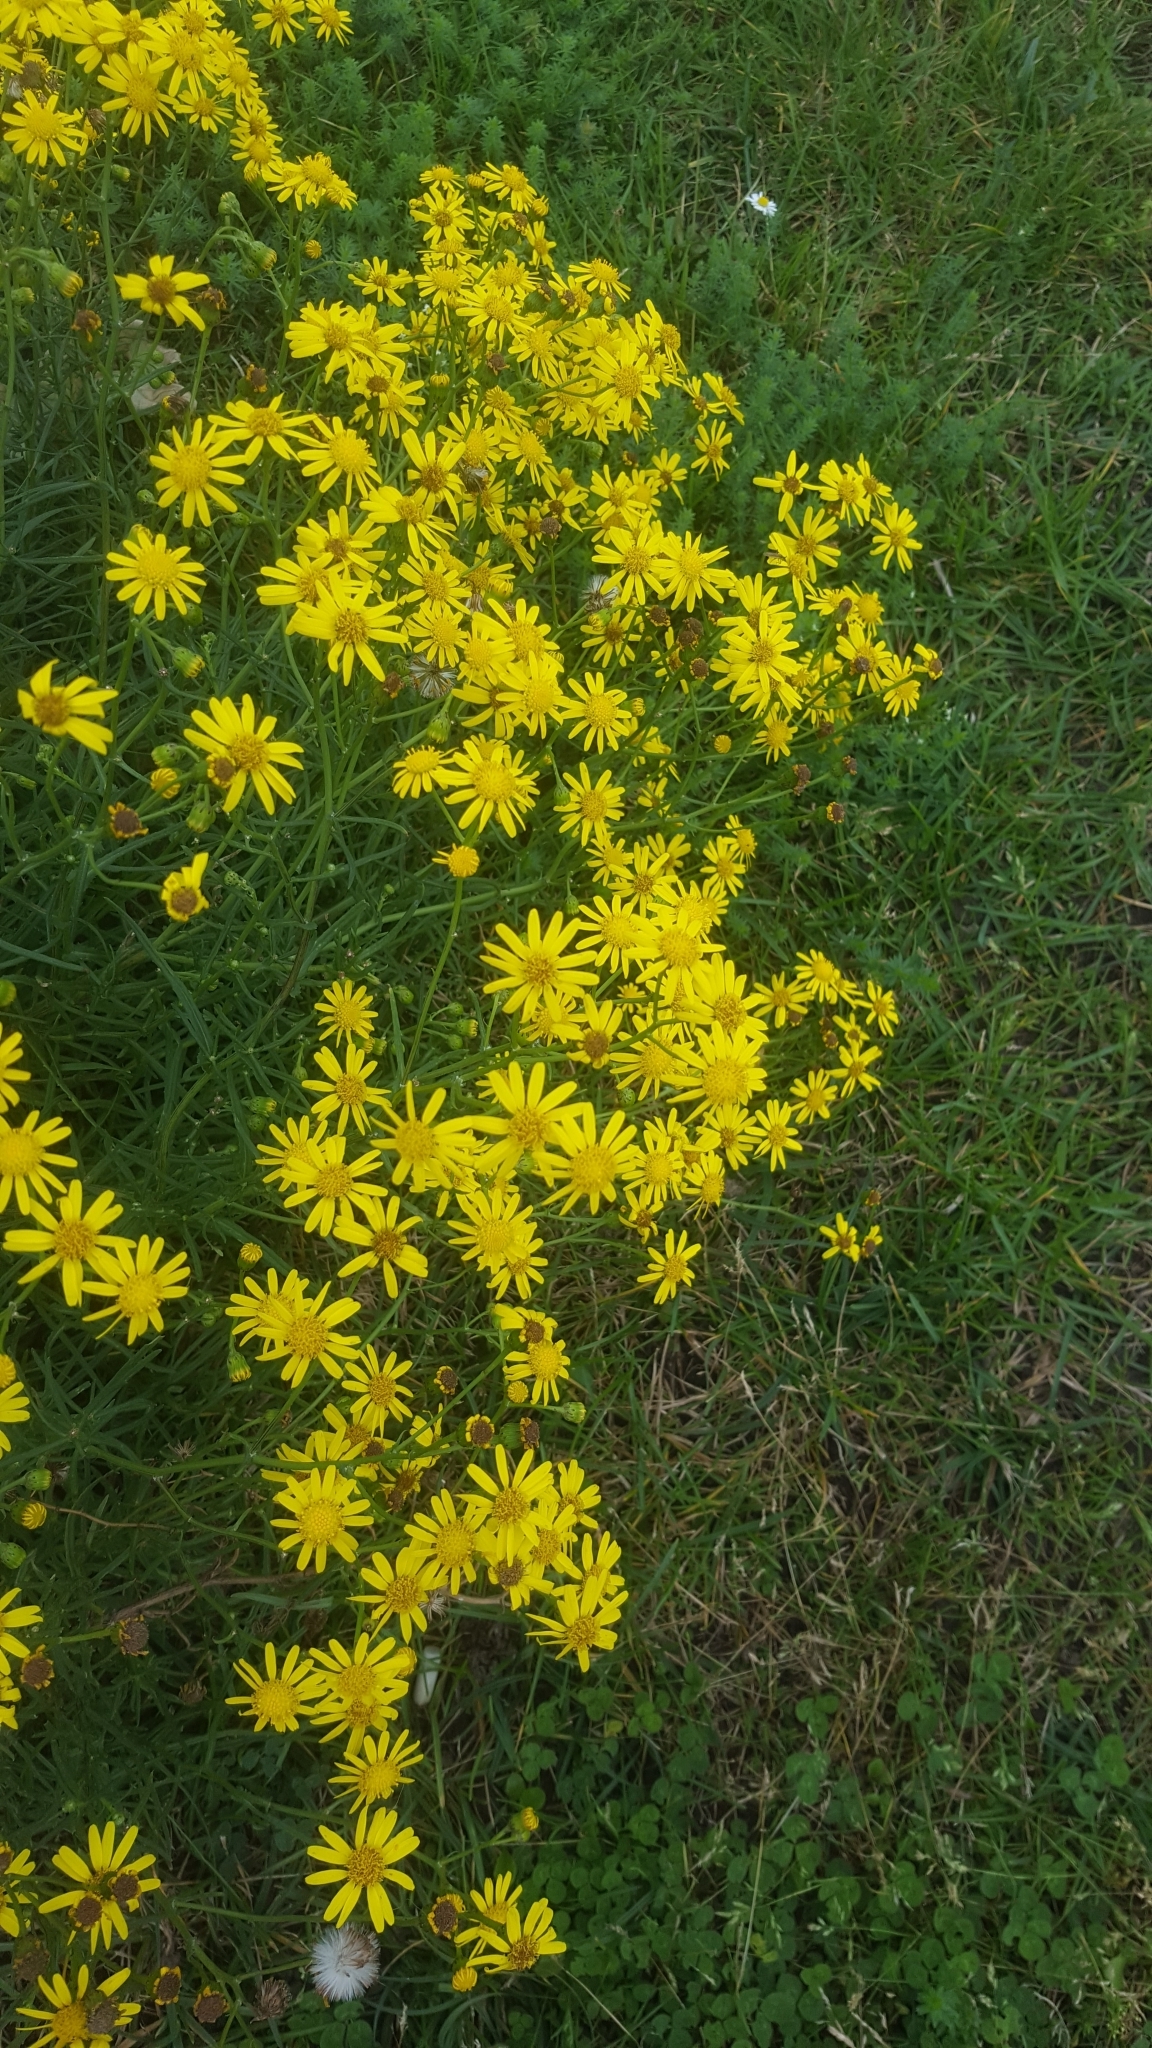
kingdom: Plantae
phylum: Tracheophyta
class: Magnoliopsida
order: Asterales
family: Asteraceae
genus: Senecio
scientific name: Senecio inaequidens
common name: Narrow-leaved ragwort
